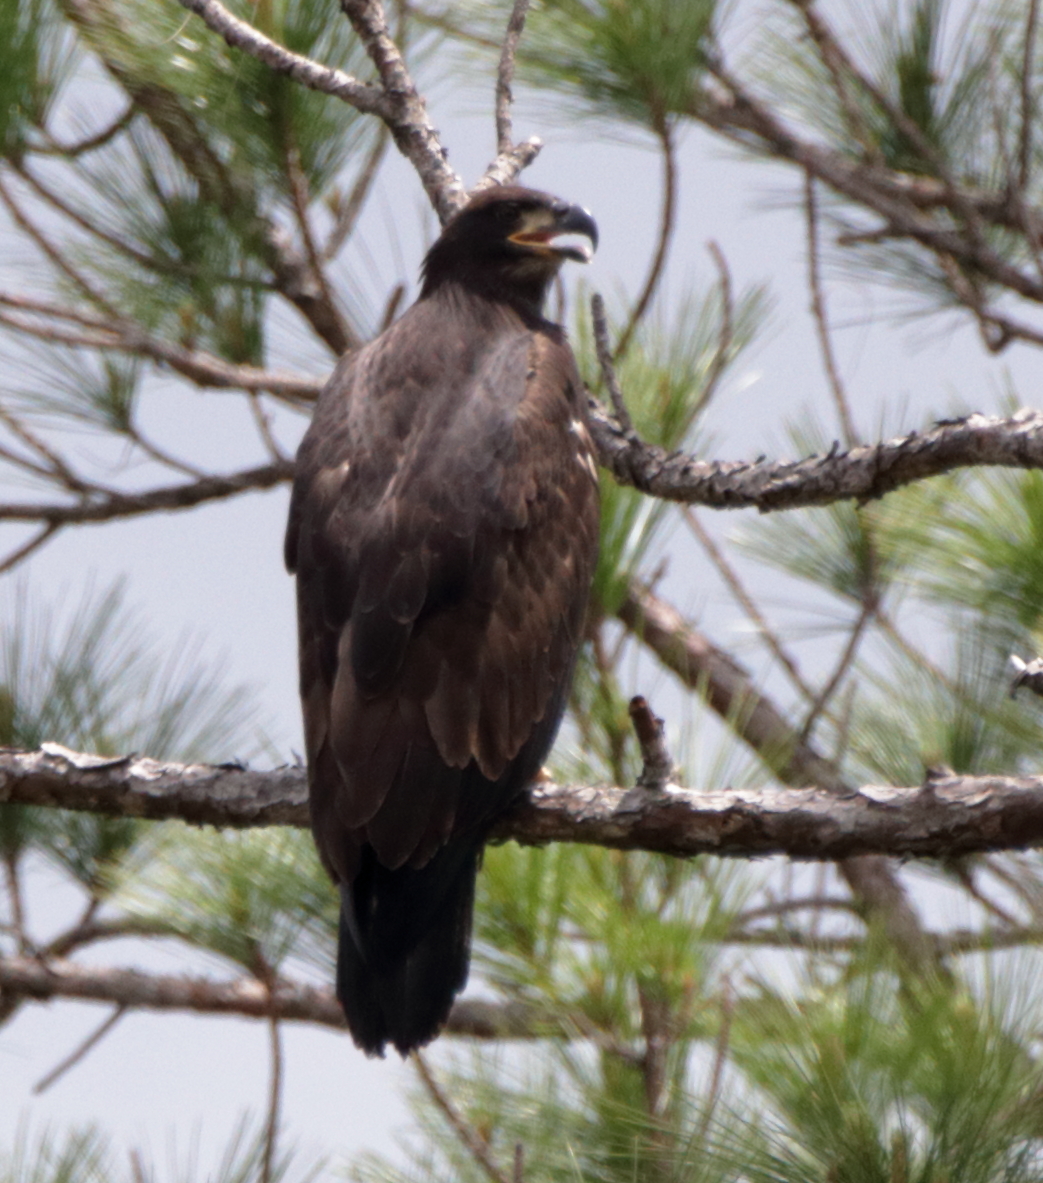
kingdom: Animalia
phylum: Chordata
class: Aves
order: Accipitriformes
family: Accipitridae
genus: Haliaeetus
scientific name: Haliaeetus leucocephalus
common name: Bald eagle
